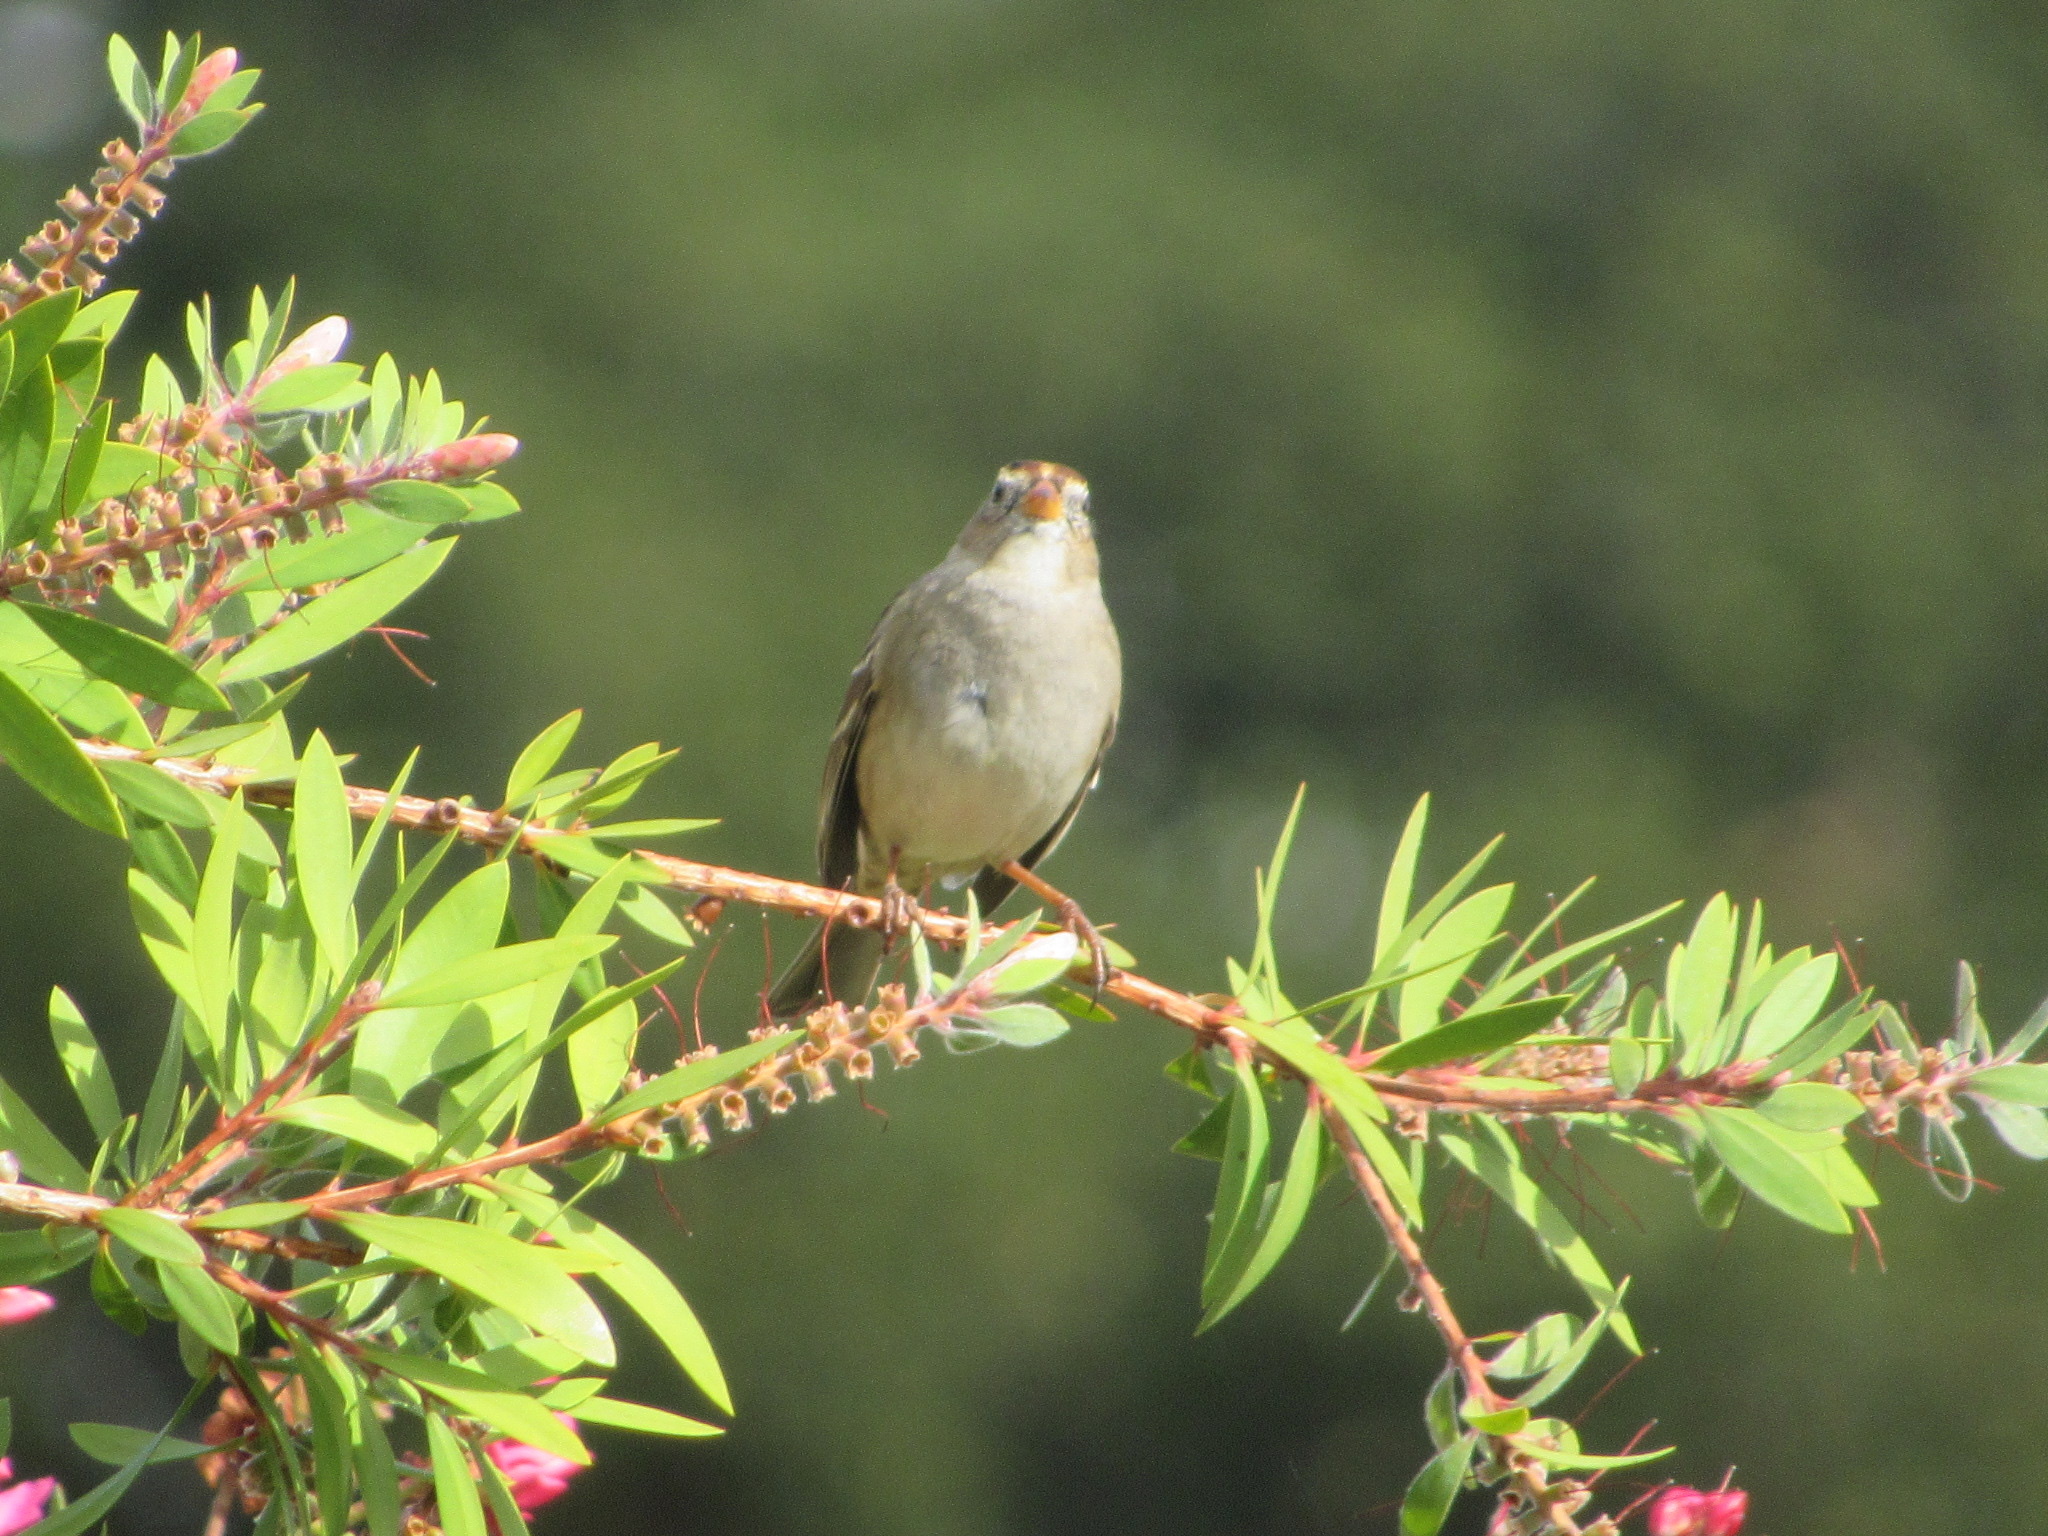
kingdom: Animalia
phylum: Chordata
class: Aves
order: Passeriformes
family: Passerellidae
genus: Zonotrichia
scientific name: Zonotrichia leucophrys
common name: White-crowned sparrow
